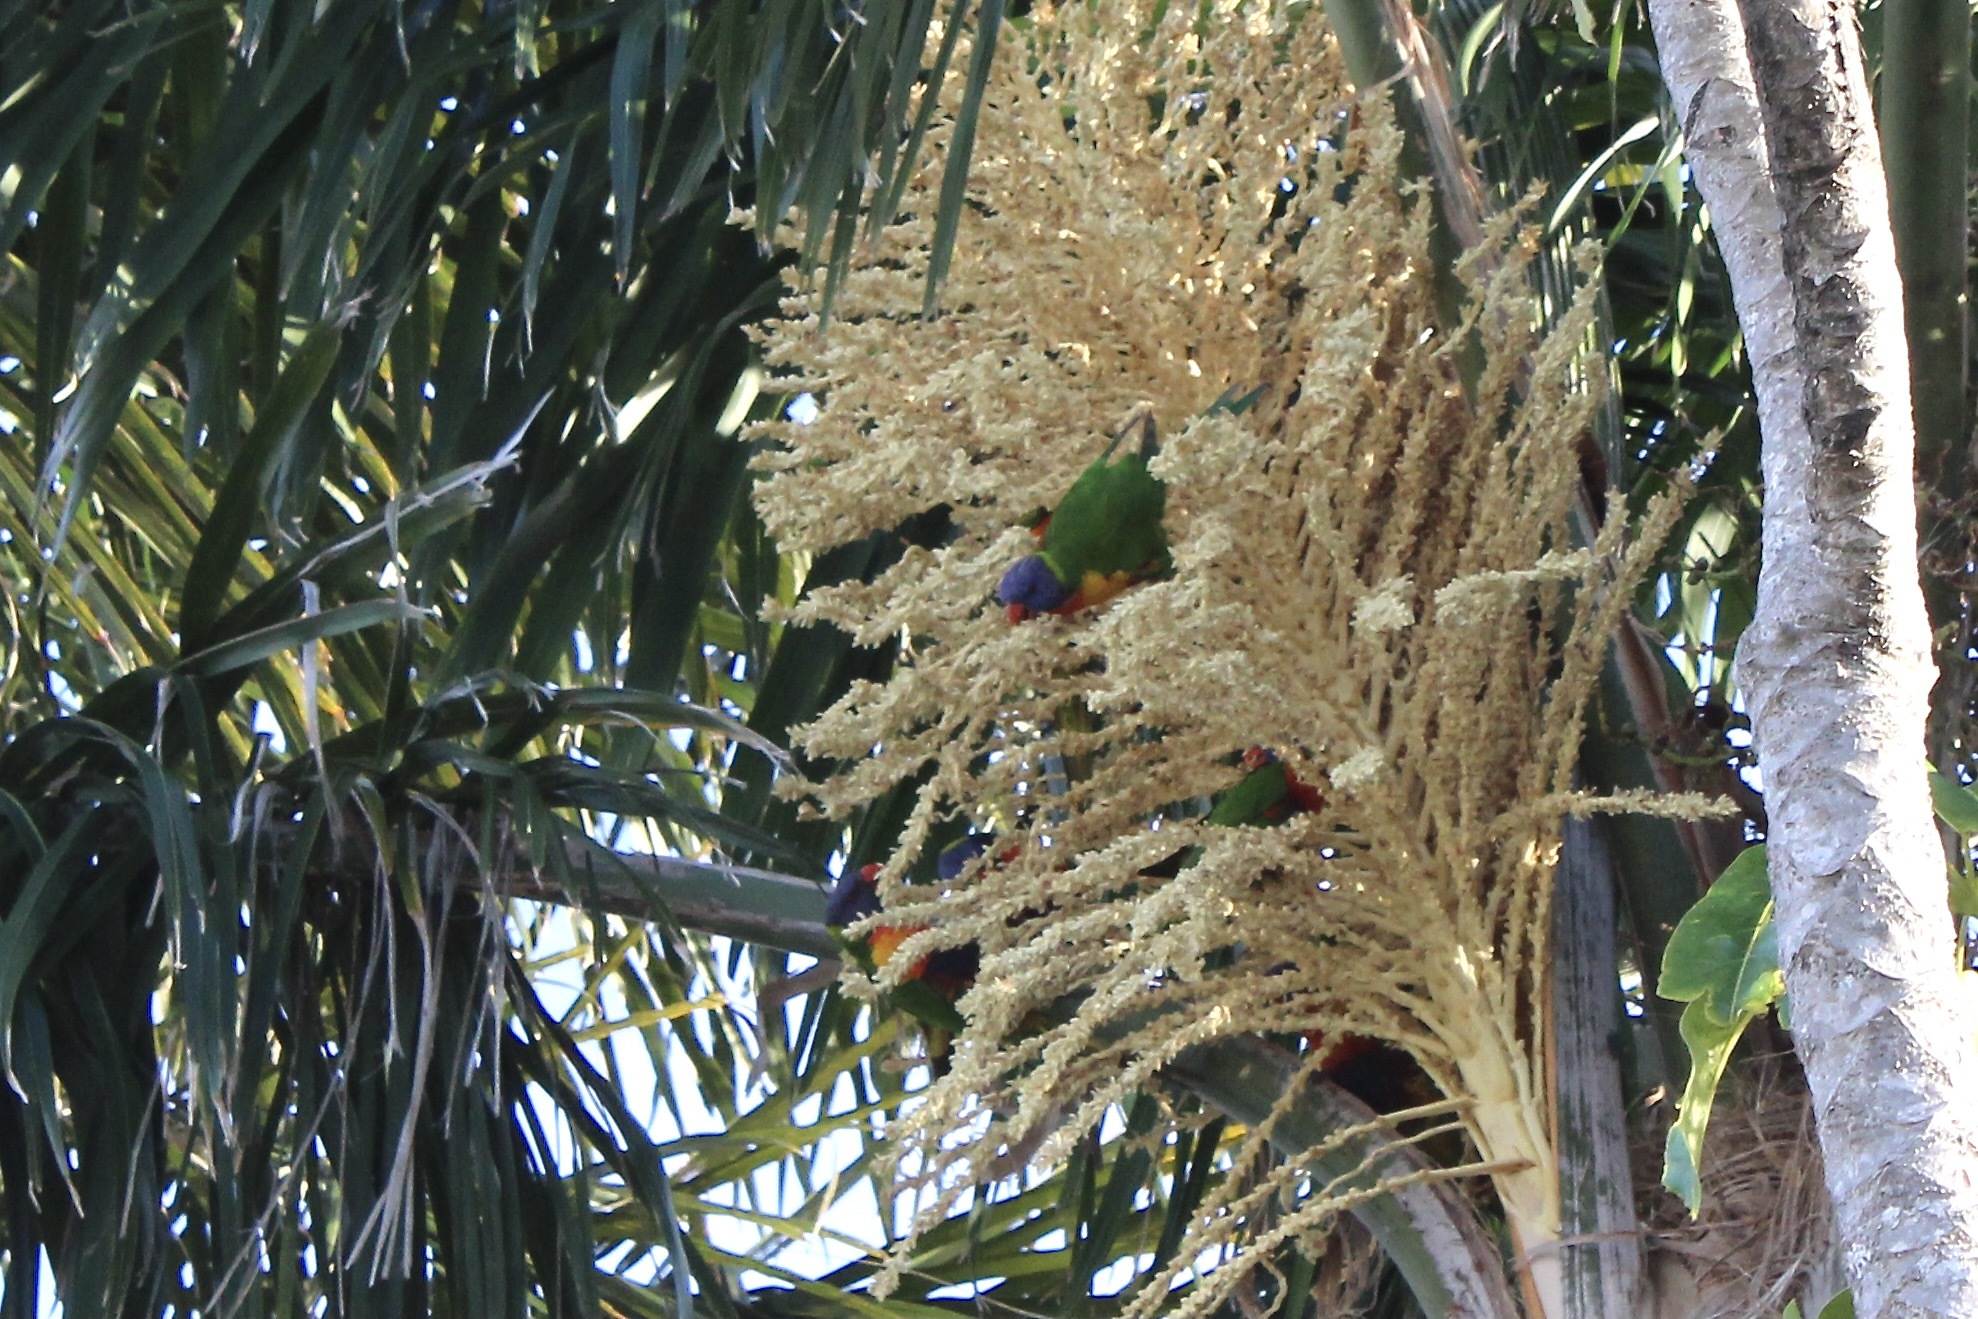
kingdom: Animalia
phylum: Chordata
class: Aves
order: Psittaciformes
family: Psittacidae
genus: Trichoglossus
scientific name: Trichoglossus haematodus
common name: Coconut lorikeet
